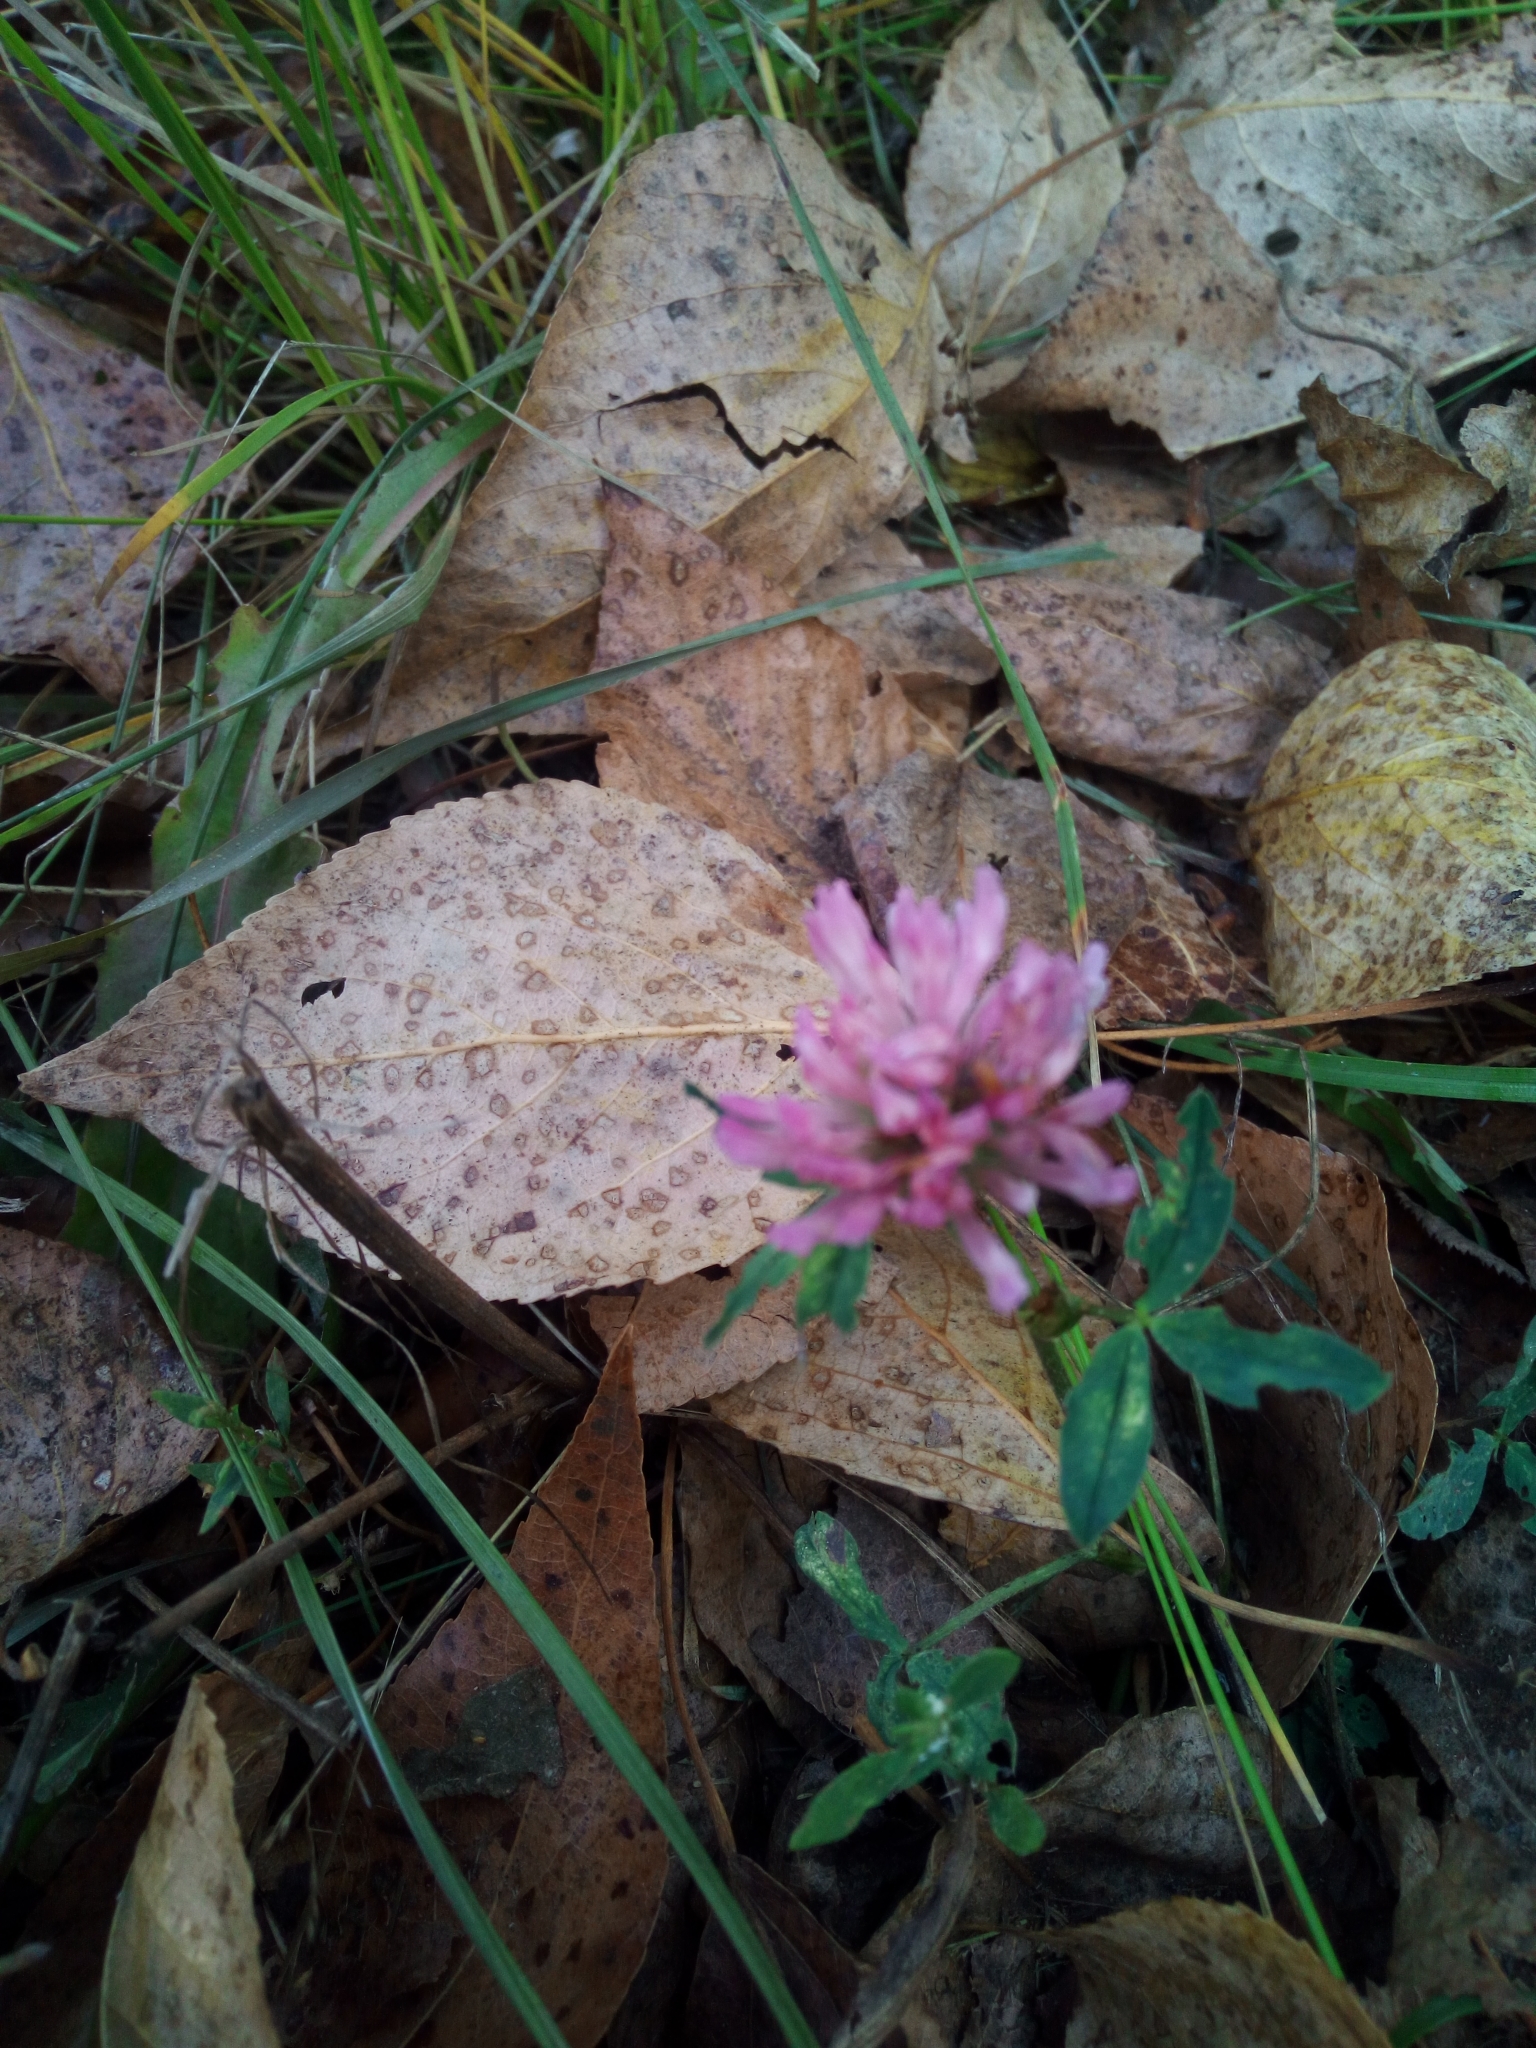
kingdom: Plantae
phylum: Tracheophyta
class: Magnoliopsida
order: Fabales
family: Fabaceae
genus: Trifolium
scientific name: Trifolium pratense
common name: Red clover
